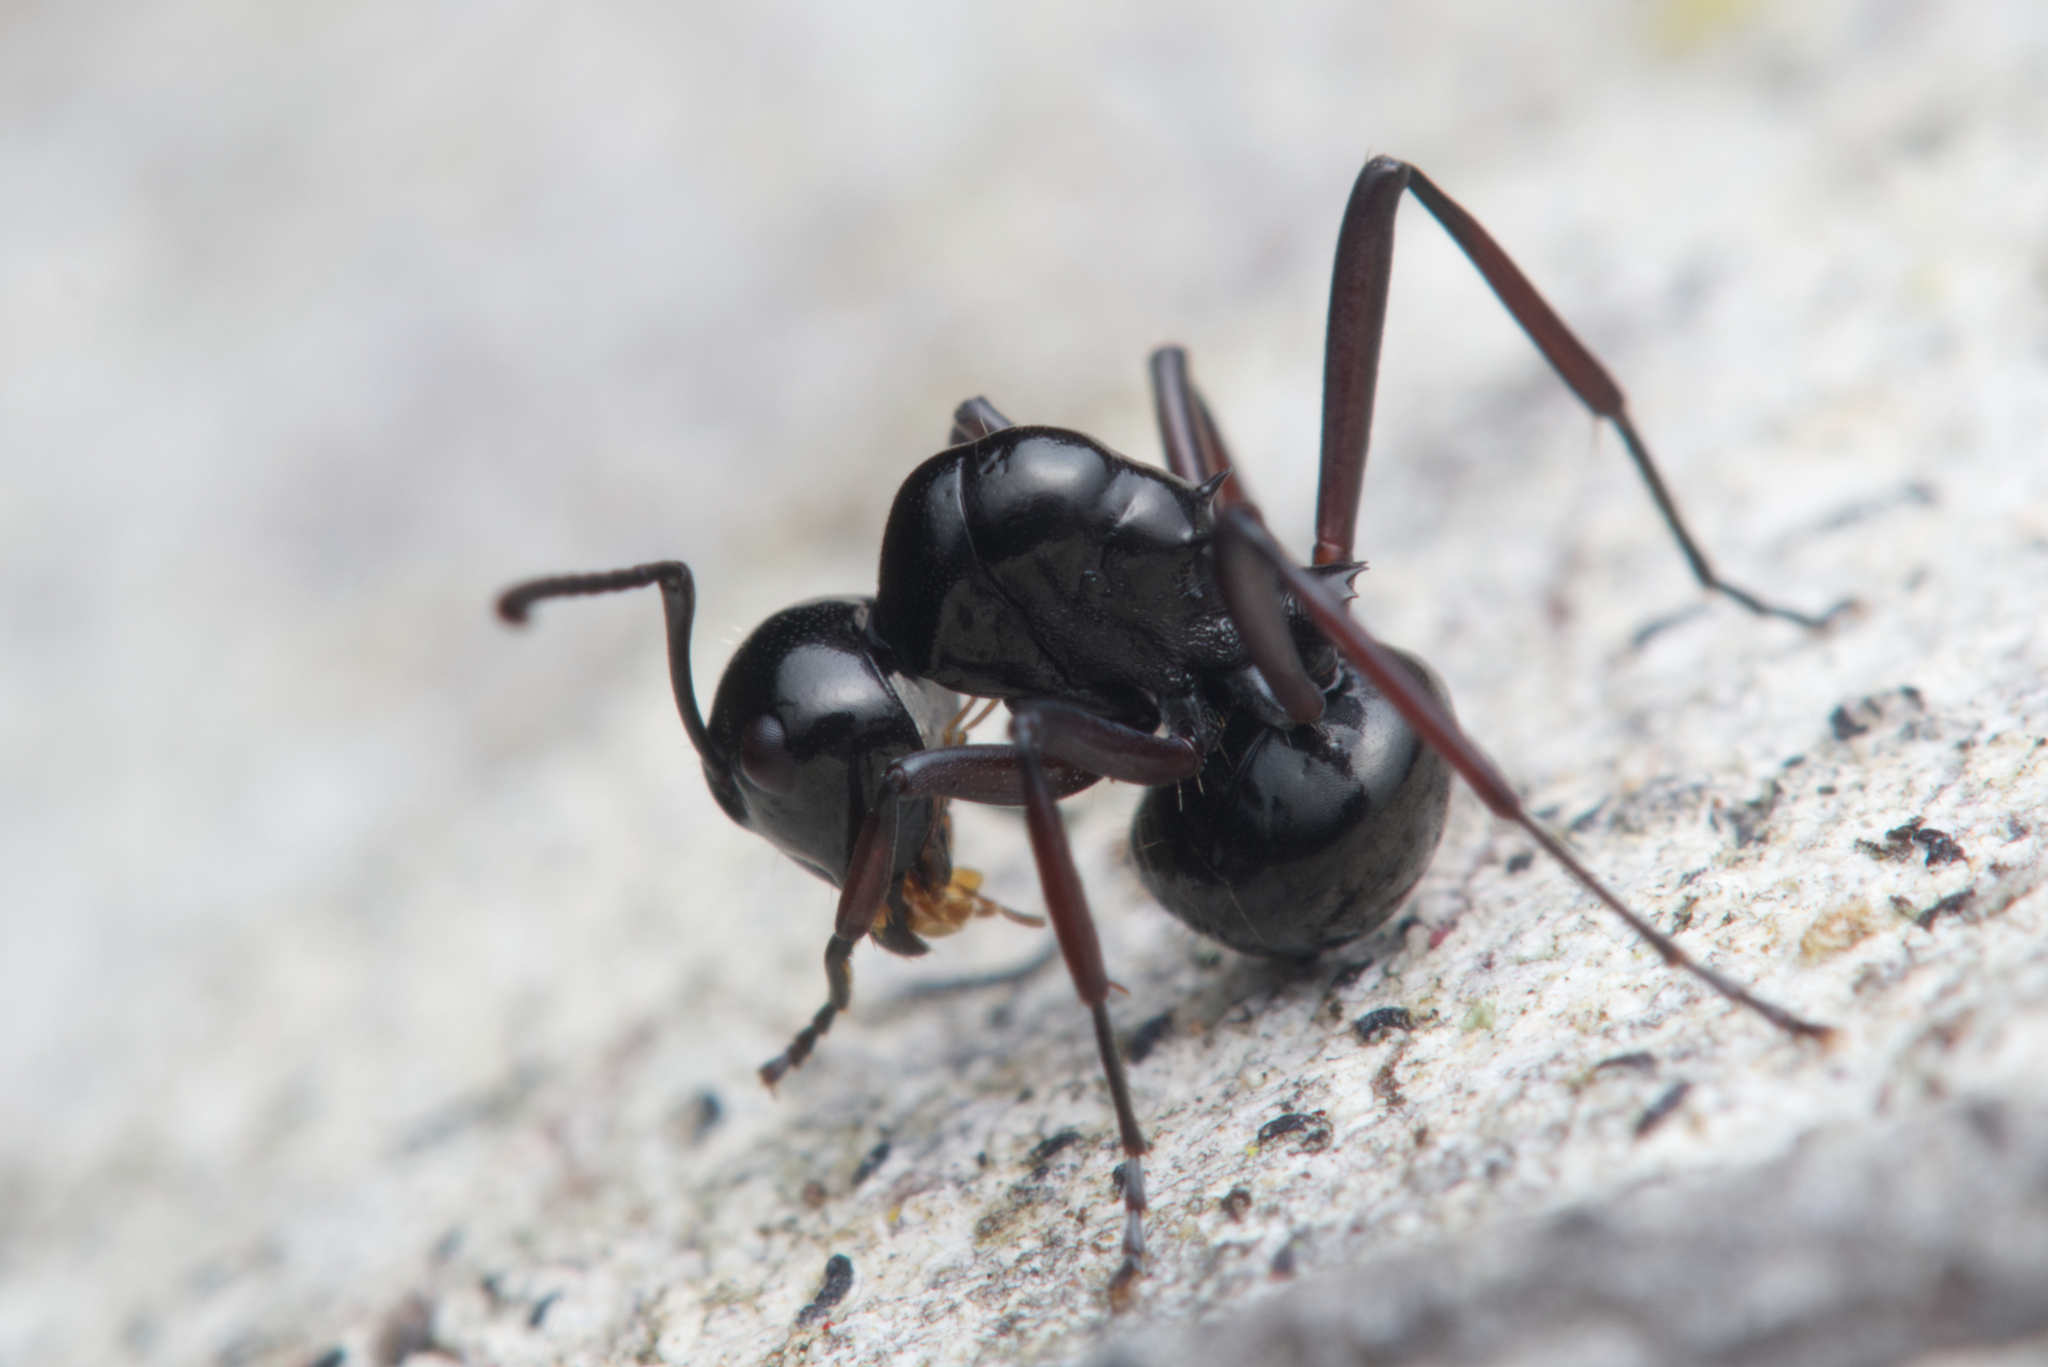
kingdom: Animalia
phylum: Arthropoda
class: Insecta
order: Hymenoptera
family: Formicidae
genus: Polyrhachis
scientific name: Polyrhachis australis
